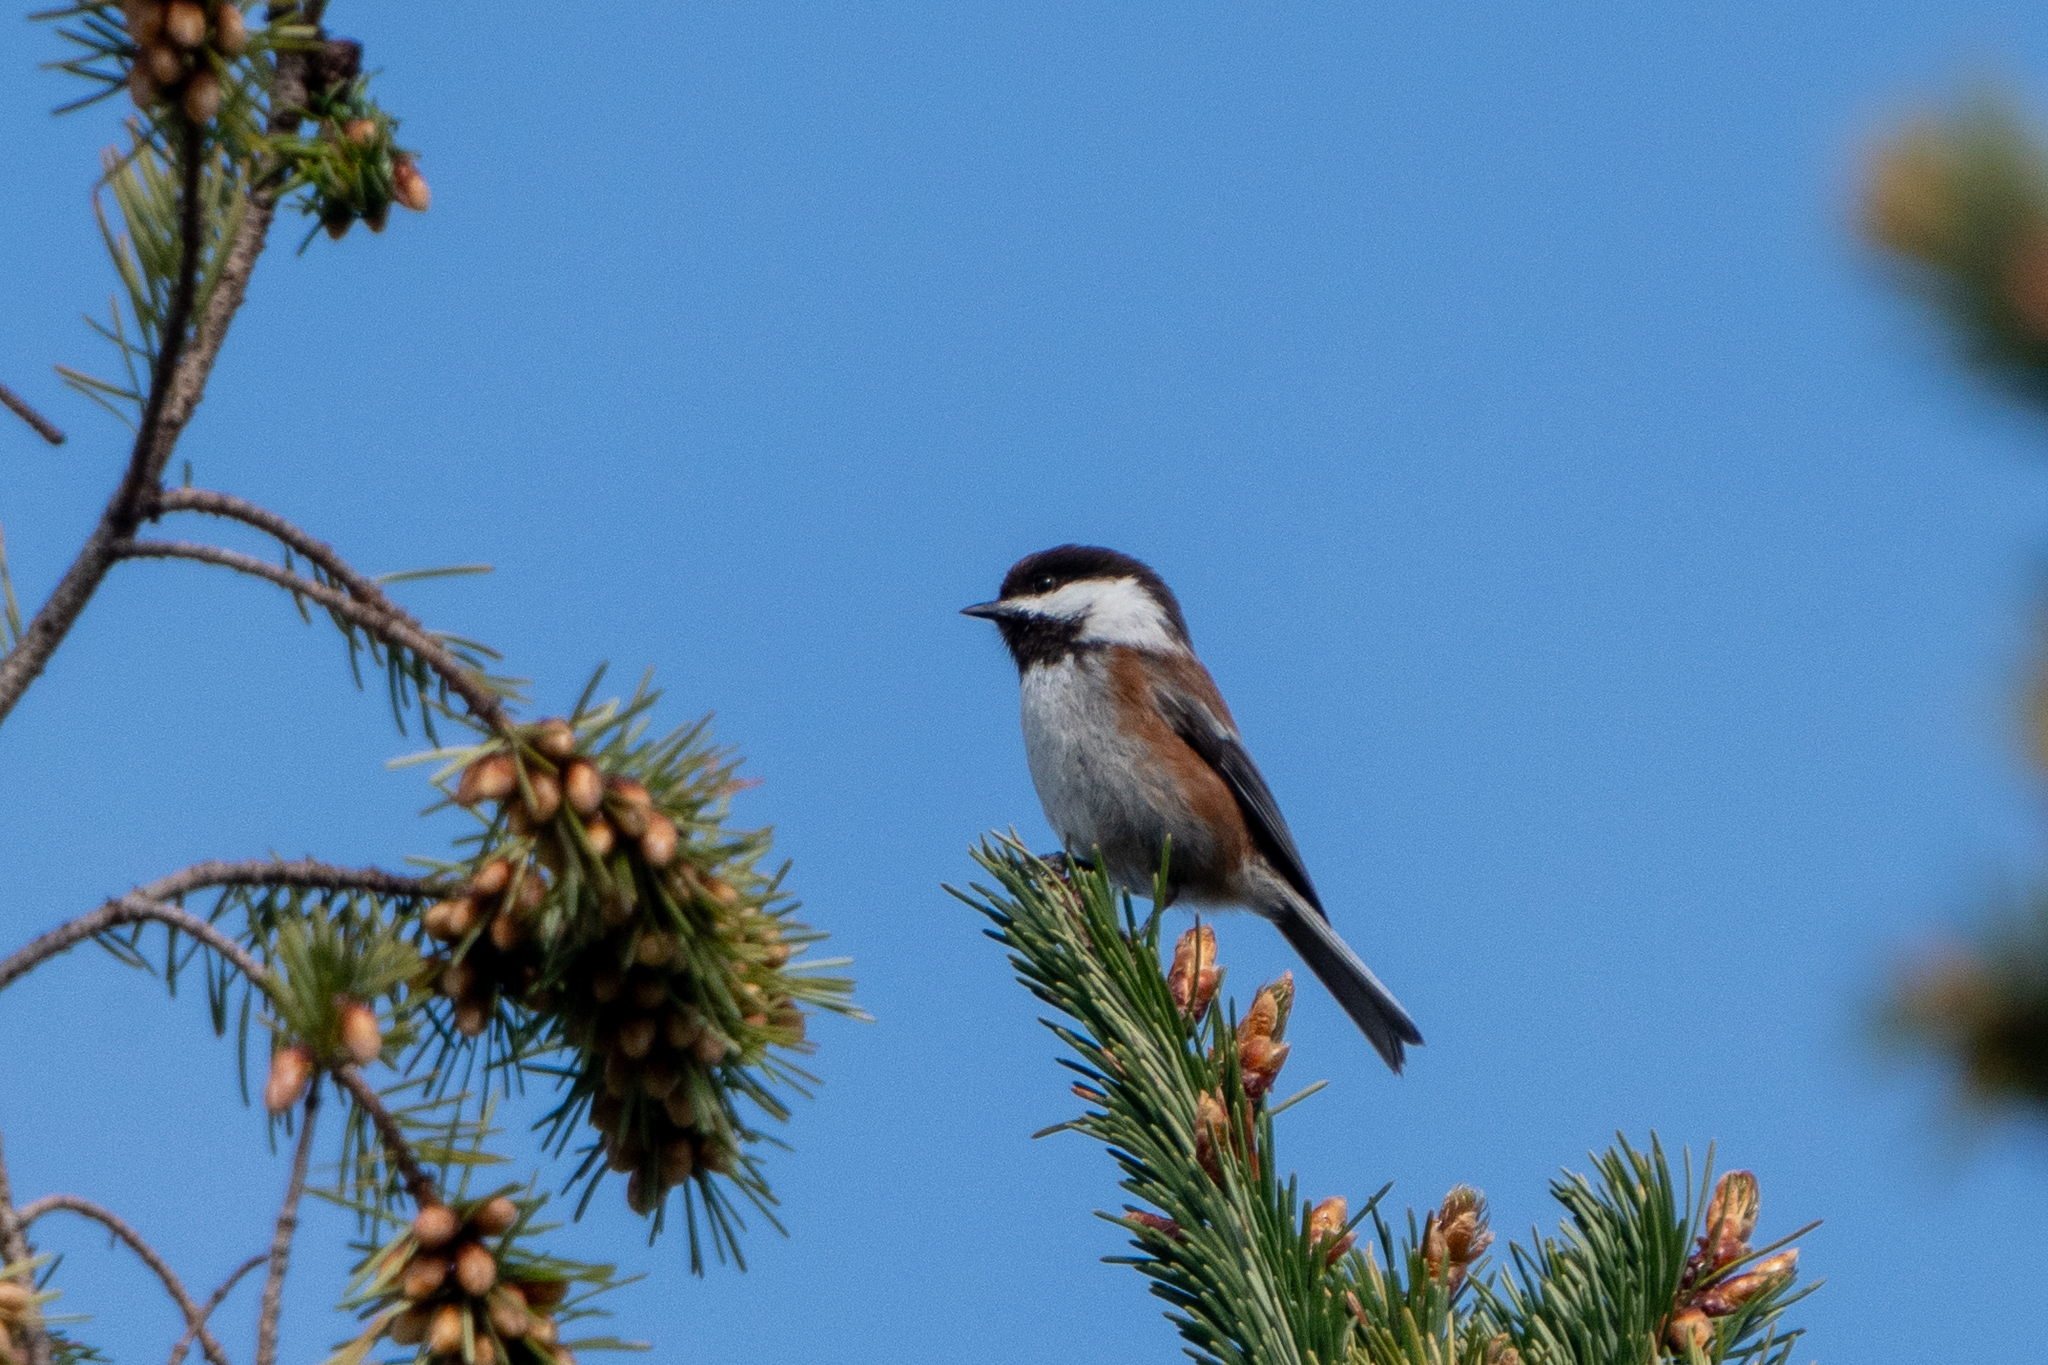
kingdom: Animalia
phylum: Chordata
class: Aves
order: Passeriformes
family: Paridae
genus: Poecile
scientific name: Poecile rufescens
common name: Chestnut-backed chickadee
